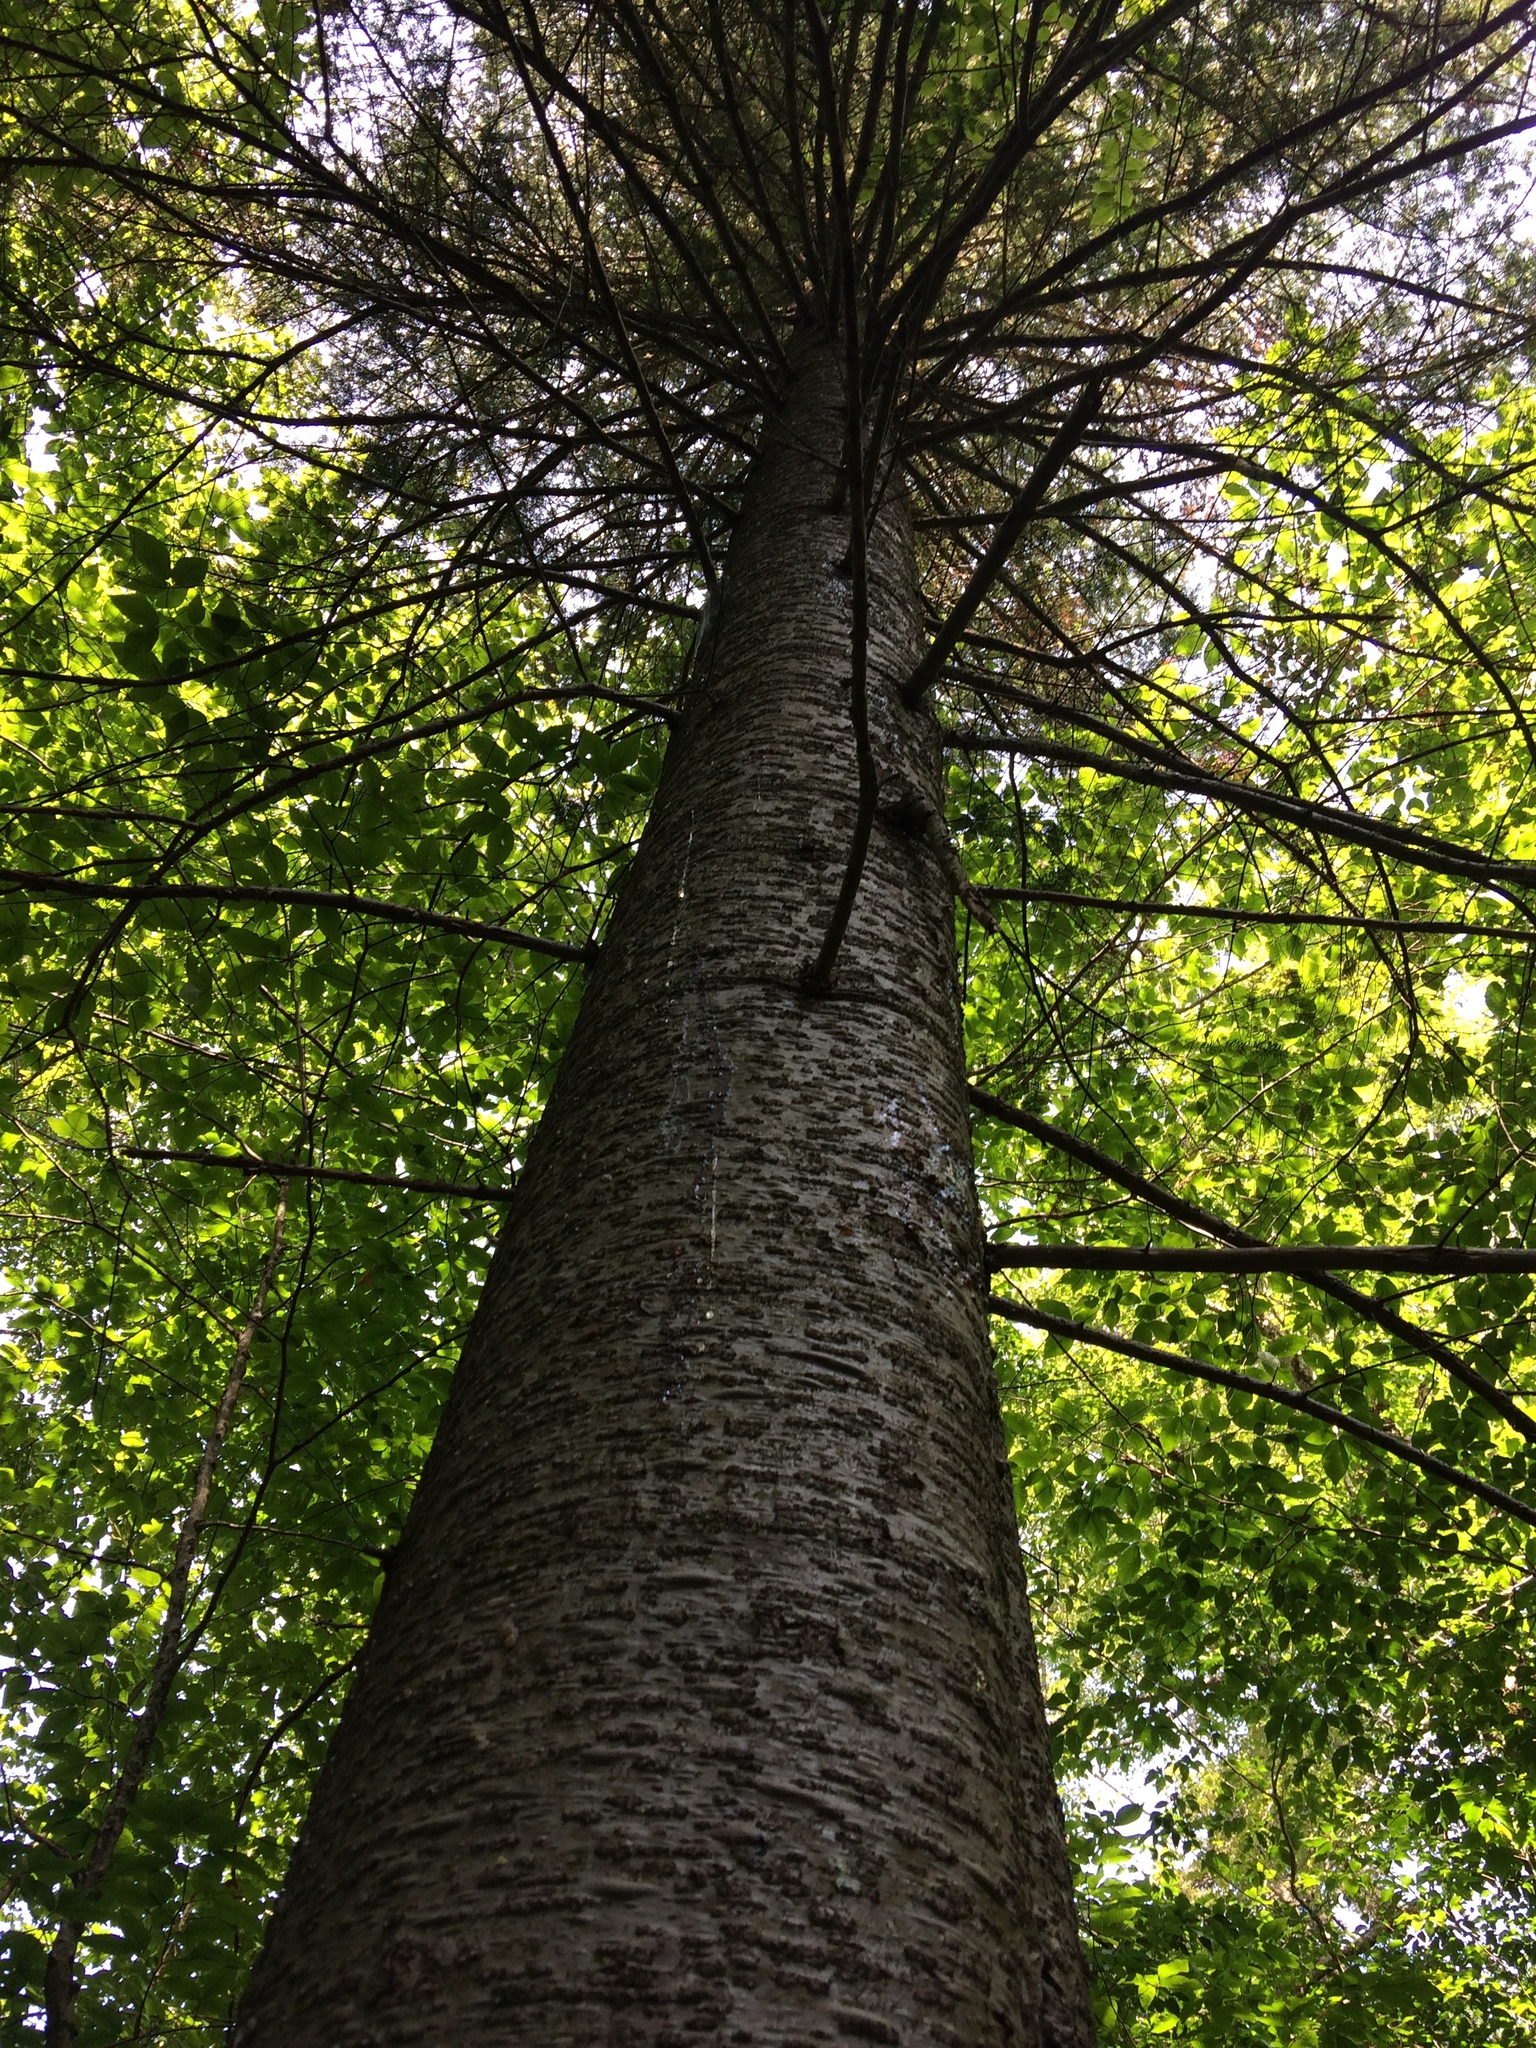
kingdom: Plantae
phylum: Tracheophyta
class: Pinopsida
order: Pinales
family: Pinaceae
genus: Abies
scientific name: Abies balsamea
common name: Balsam fir
